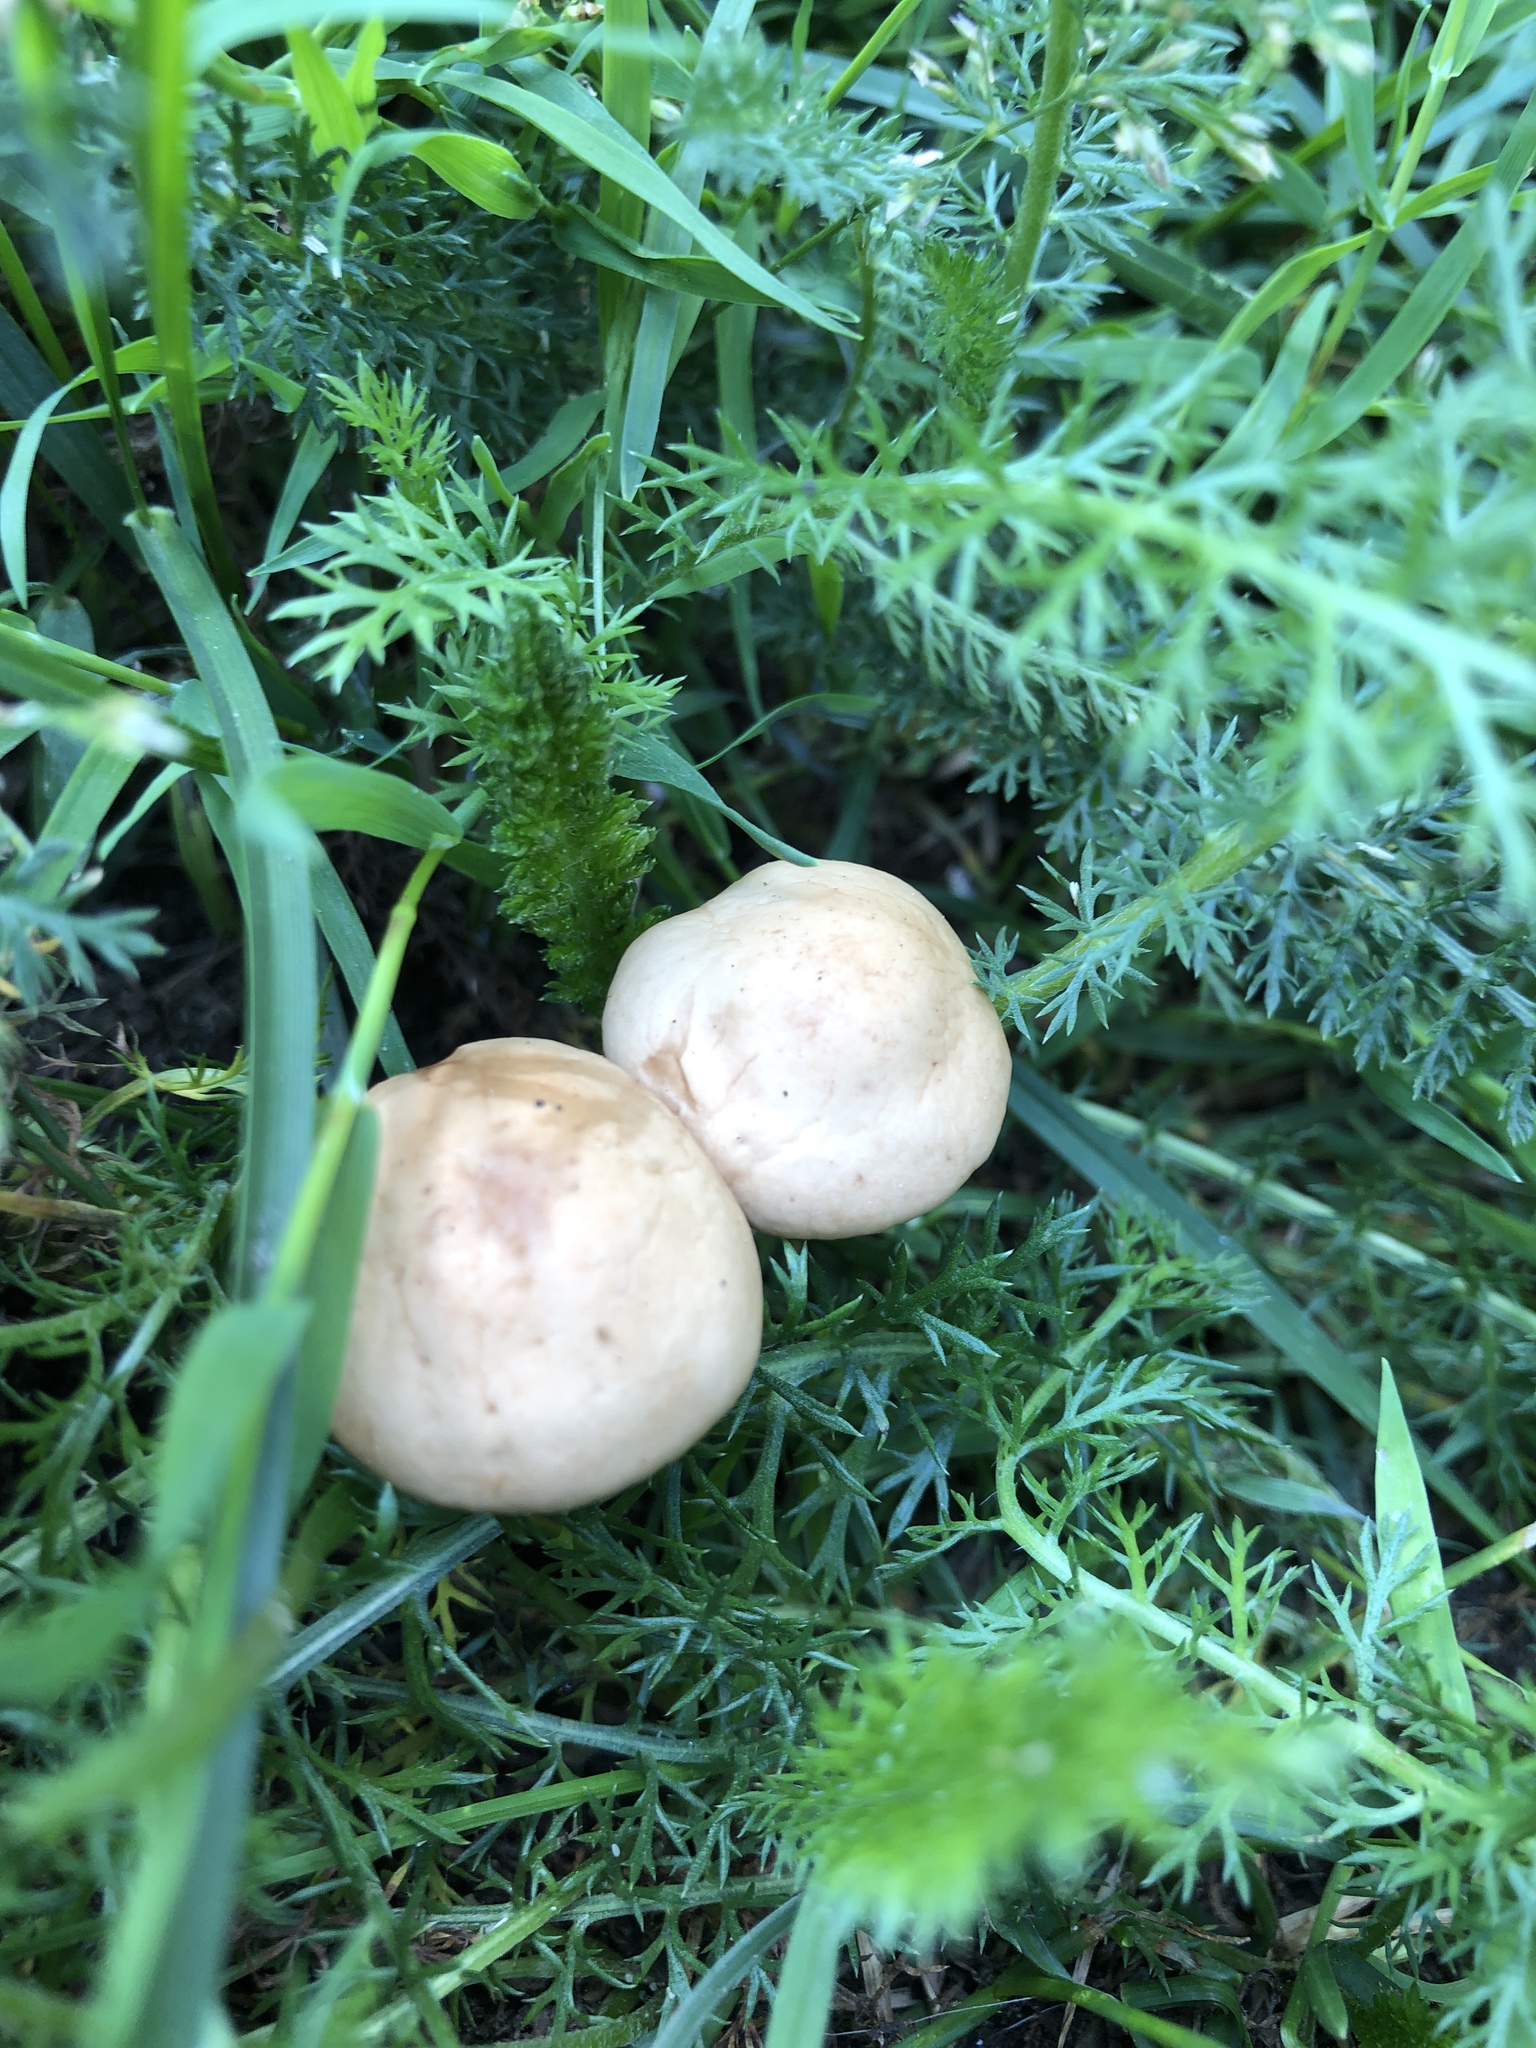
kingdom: Fungi
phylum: Basidiomycota
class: Agaricomycetes
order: Agaricales
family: Marasmiaceae
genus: Marasmius
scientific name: Marasmius oreades
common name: Fairy ring champignon
